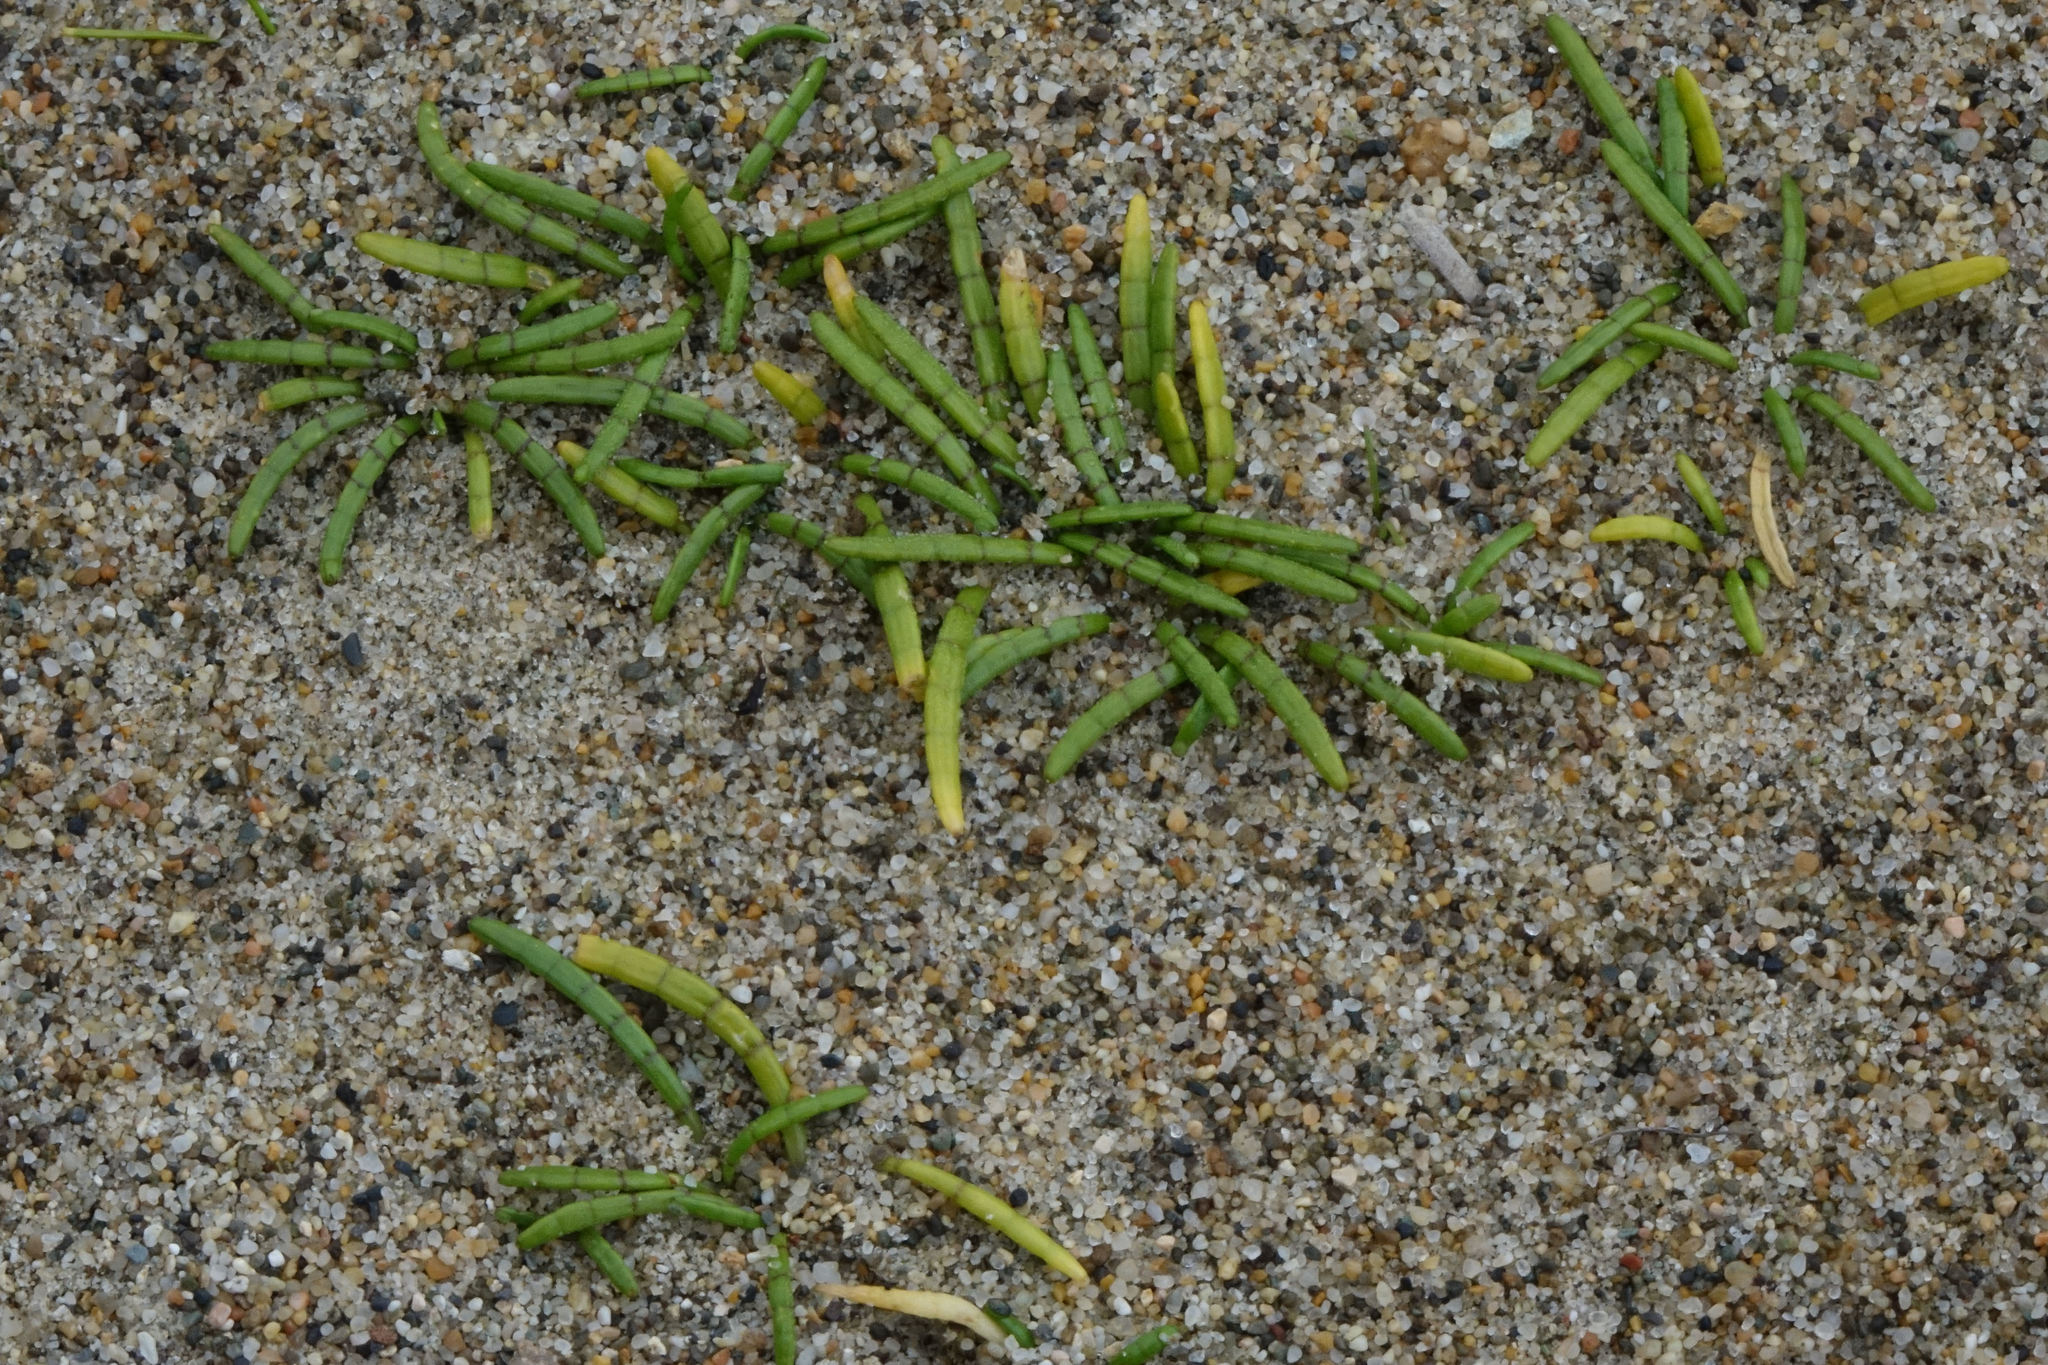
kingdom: Plantae
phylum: Tracheophyta
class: Magnoliopsida
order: Apiales
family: Apiaceae
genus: Lilaeopsis
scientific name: Lilaeopsis novae-zelandiae
